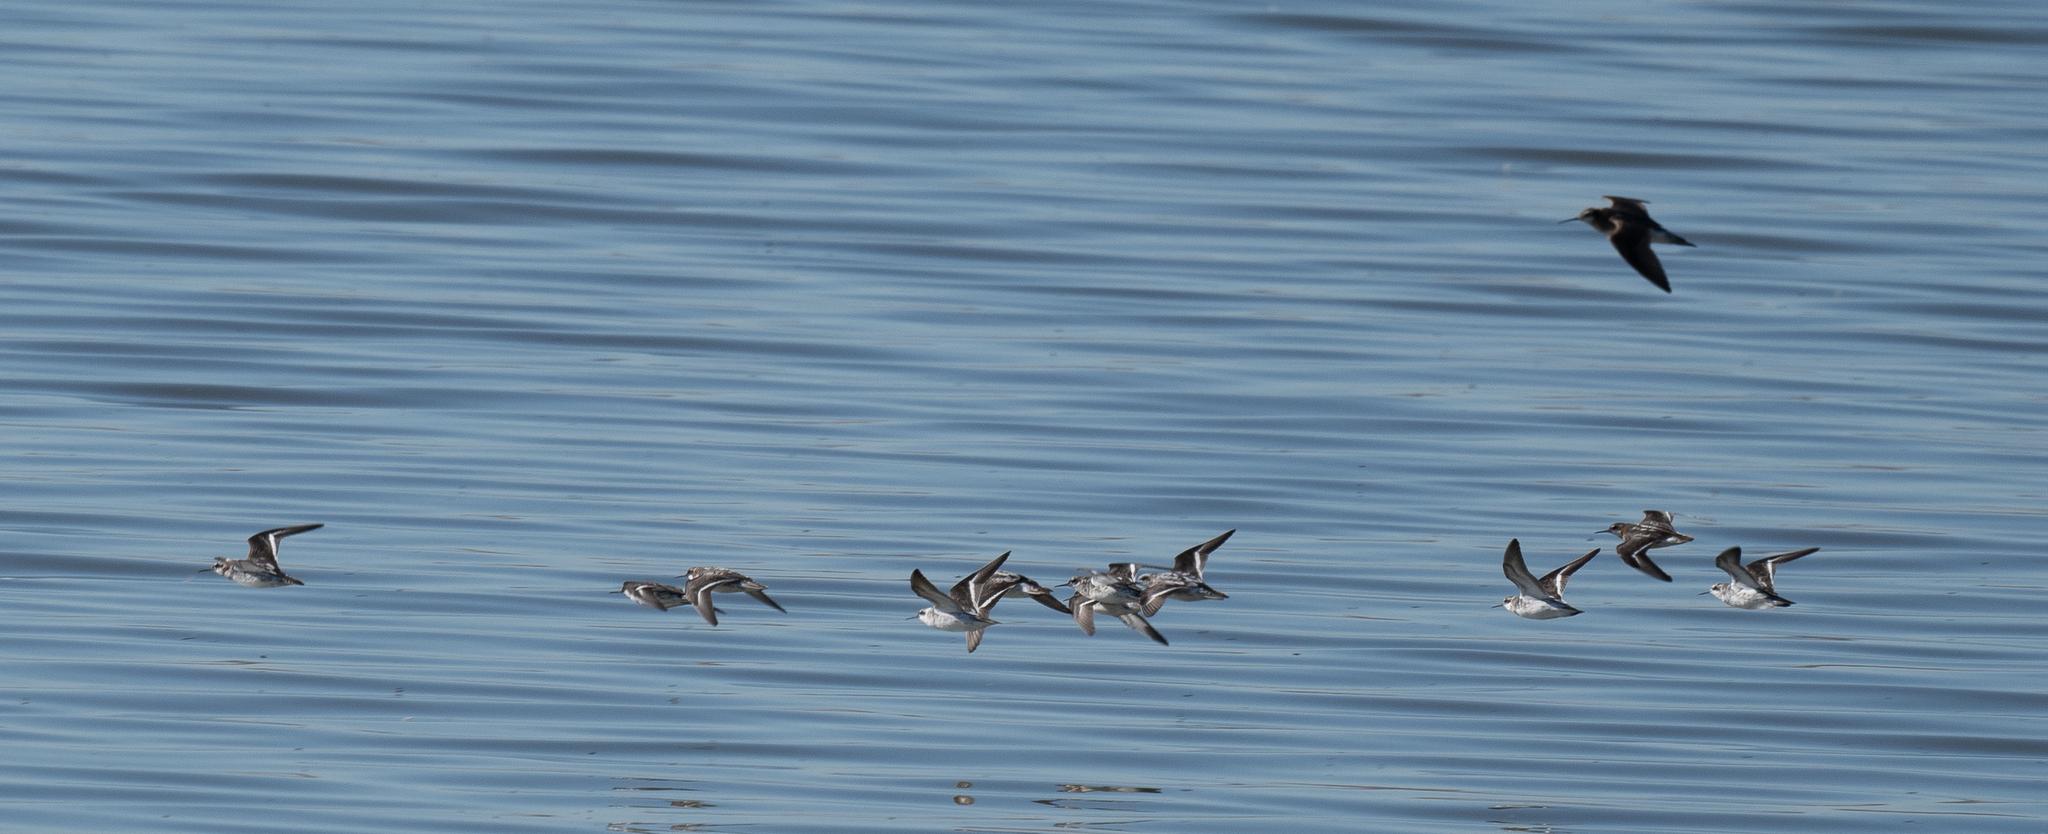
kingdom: Animalia
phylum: Chordata
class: Aves
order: Charadriiformes
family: Scolopacidae
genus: Phalaropus
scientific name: Phalaropus lobatus
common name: Red-necked phalarope
